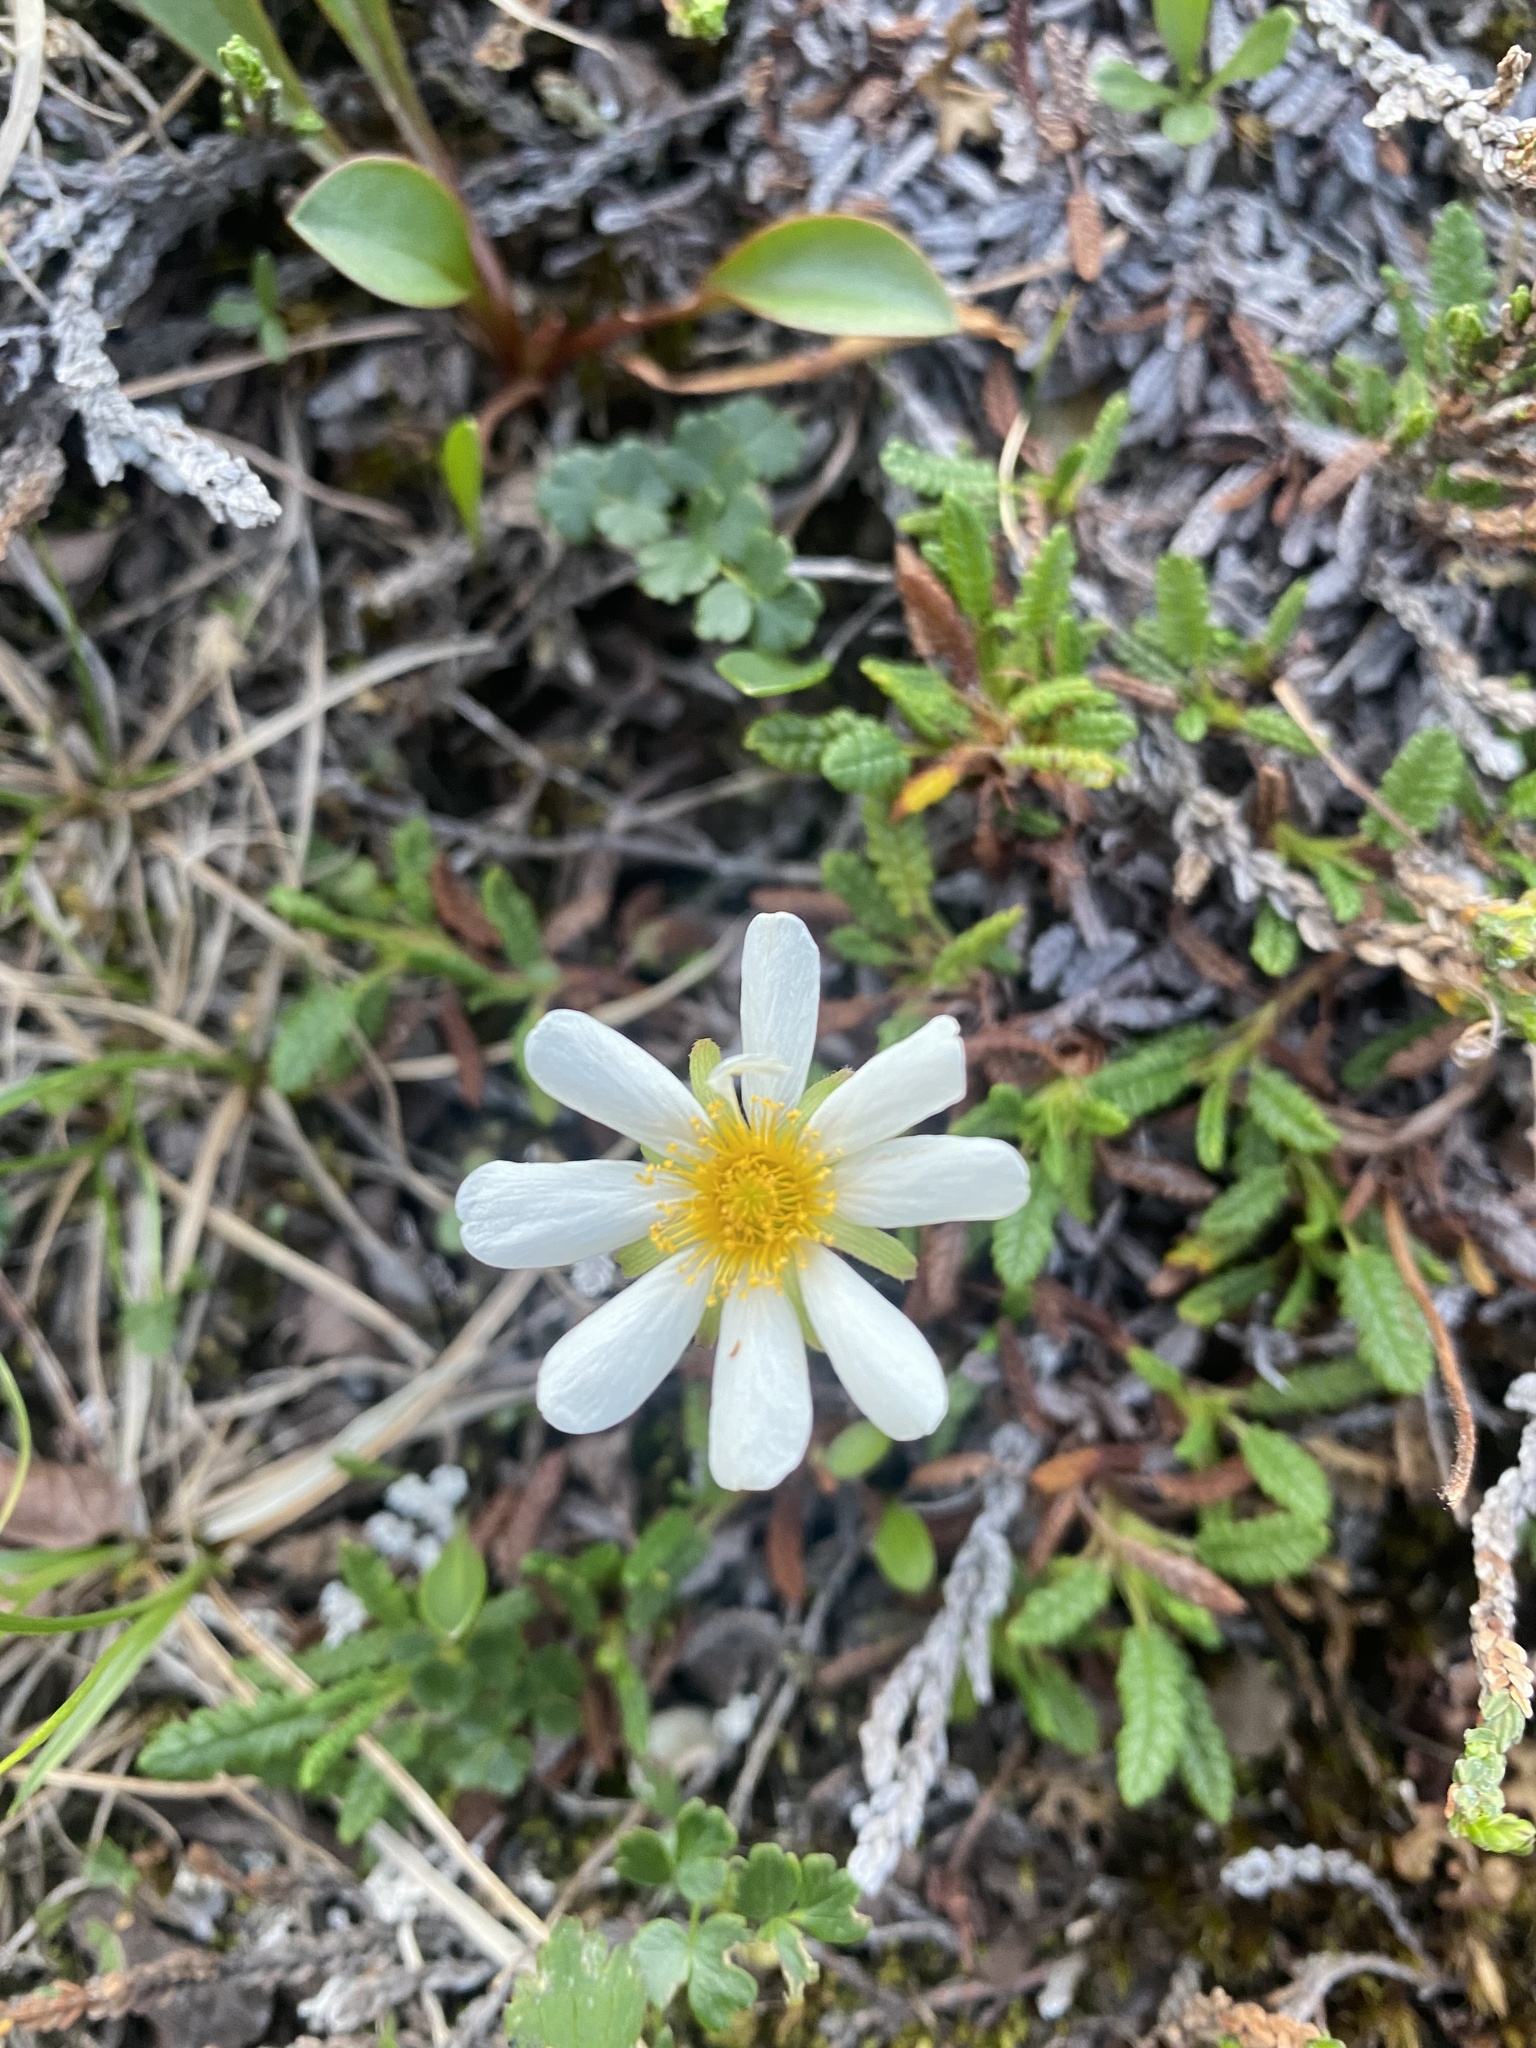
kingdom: Plantae
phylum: Tracheophyta
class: Magnoliopsida
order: Rosales
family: Rosaceae
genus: Dryas
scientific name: Dryas octopetala
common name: Eight-petal mountain-avens
